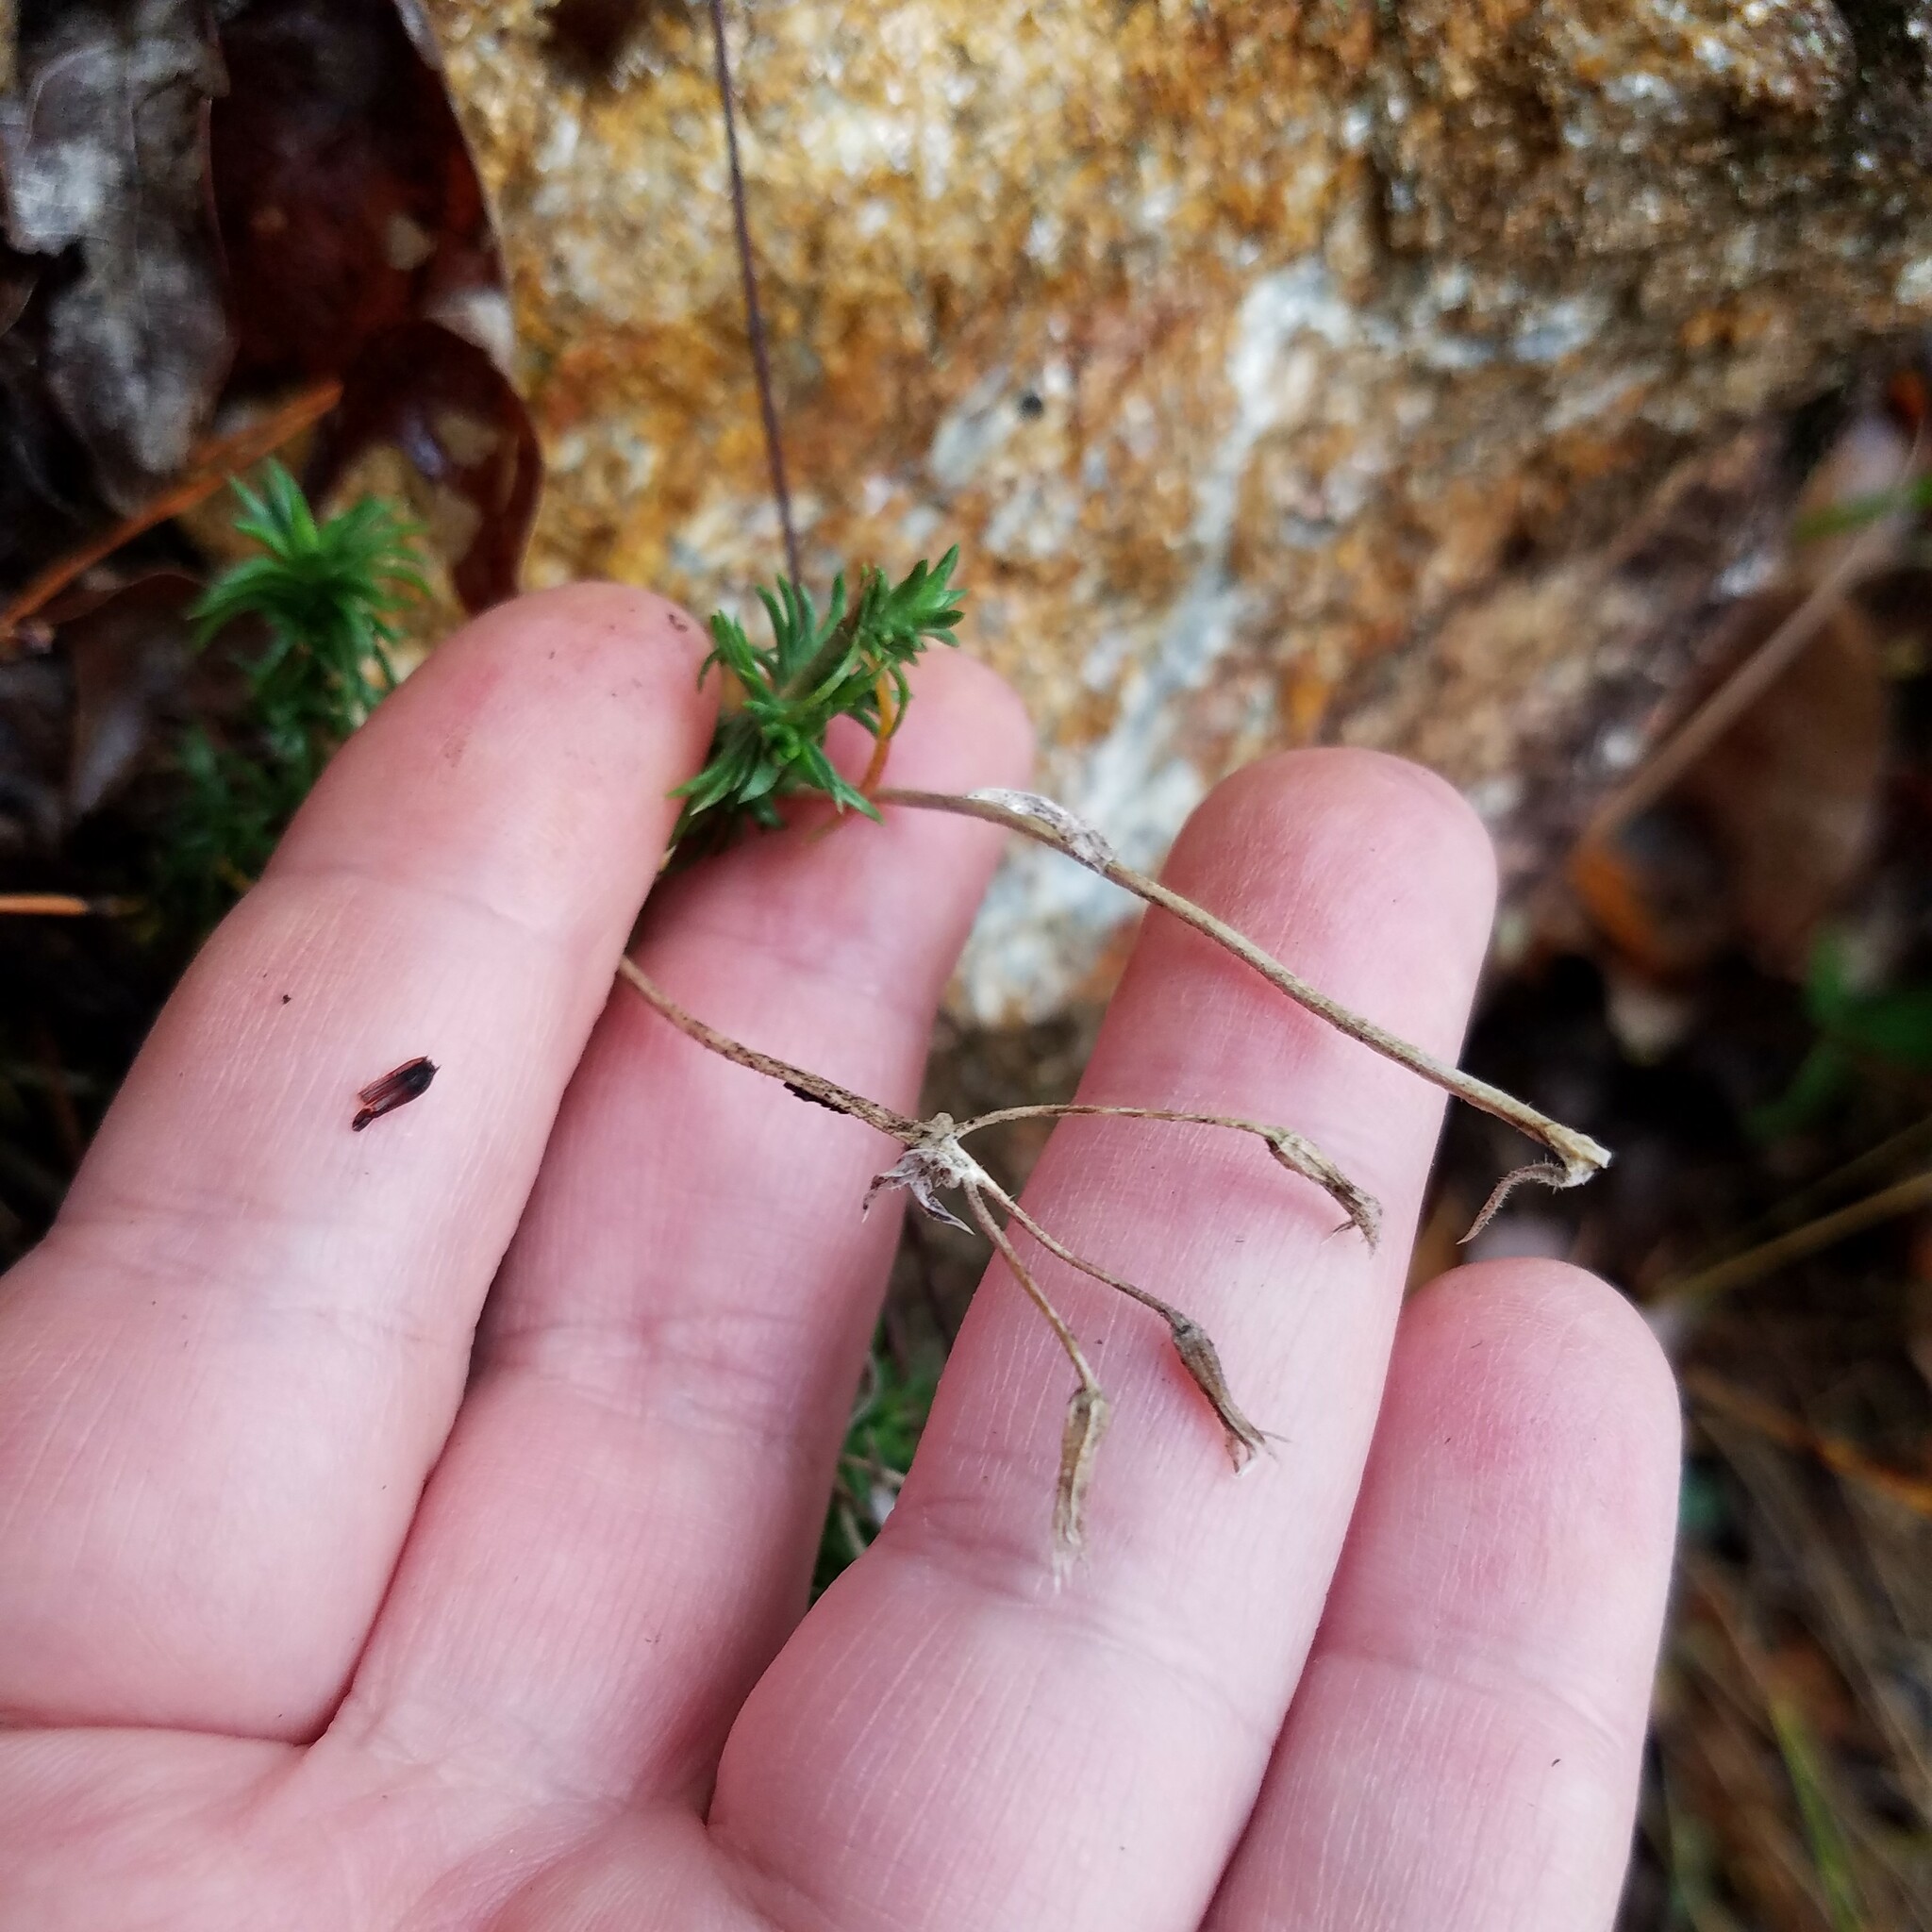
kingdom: Plantae
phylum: Tracheophyta
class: Magnoliopsida
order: Ericales
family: Polemoniaceae
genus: Phlox
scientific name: Phlox nivalis
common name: Trailing phlox
